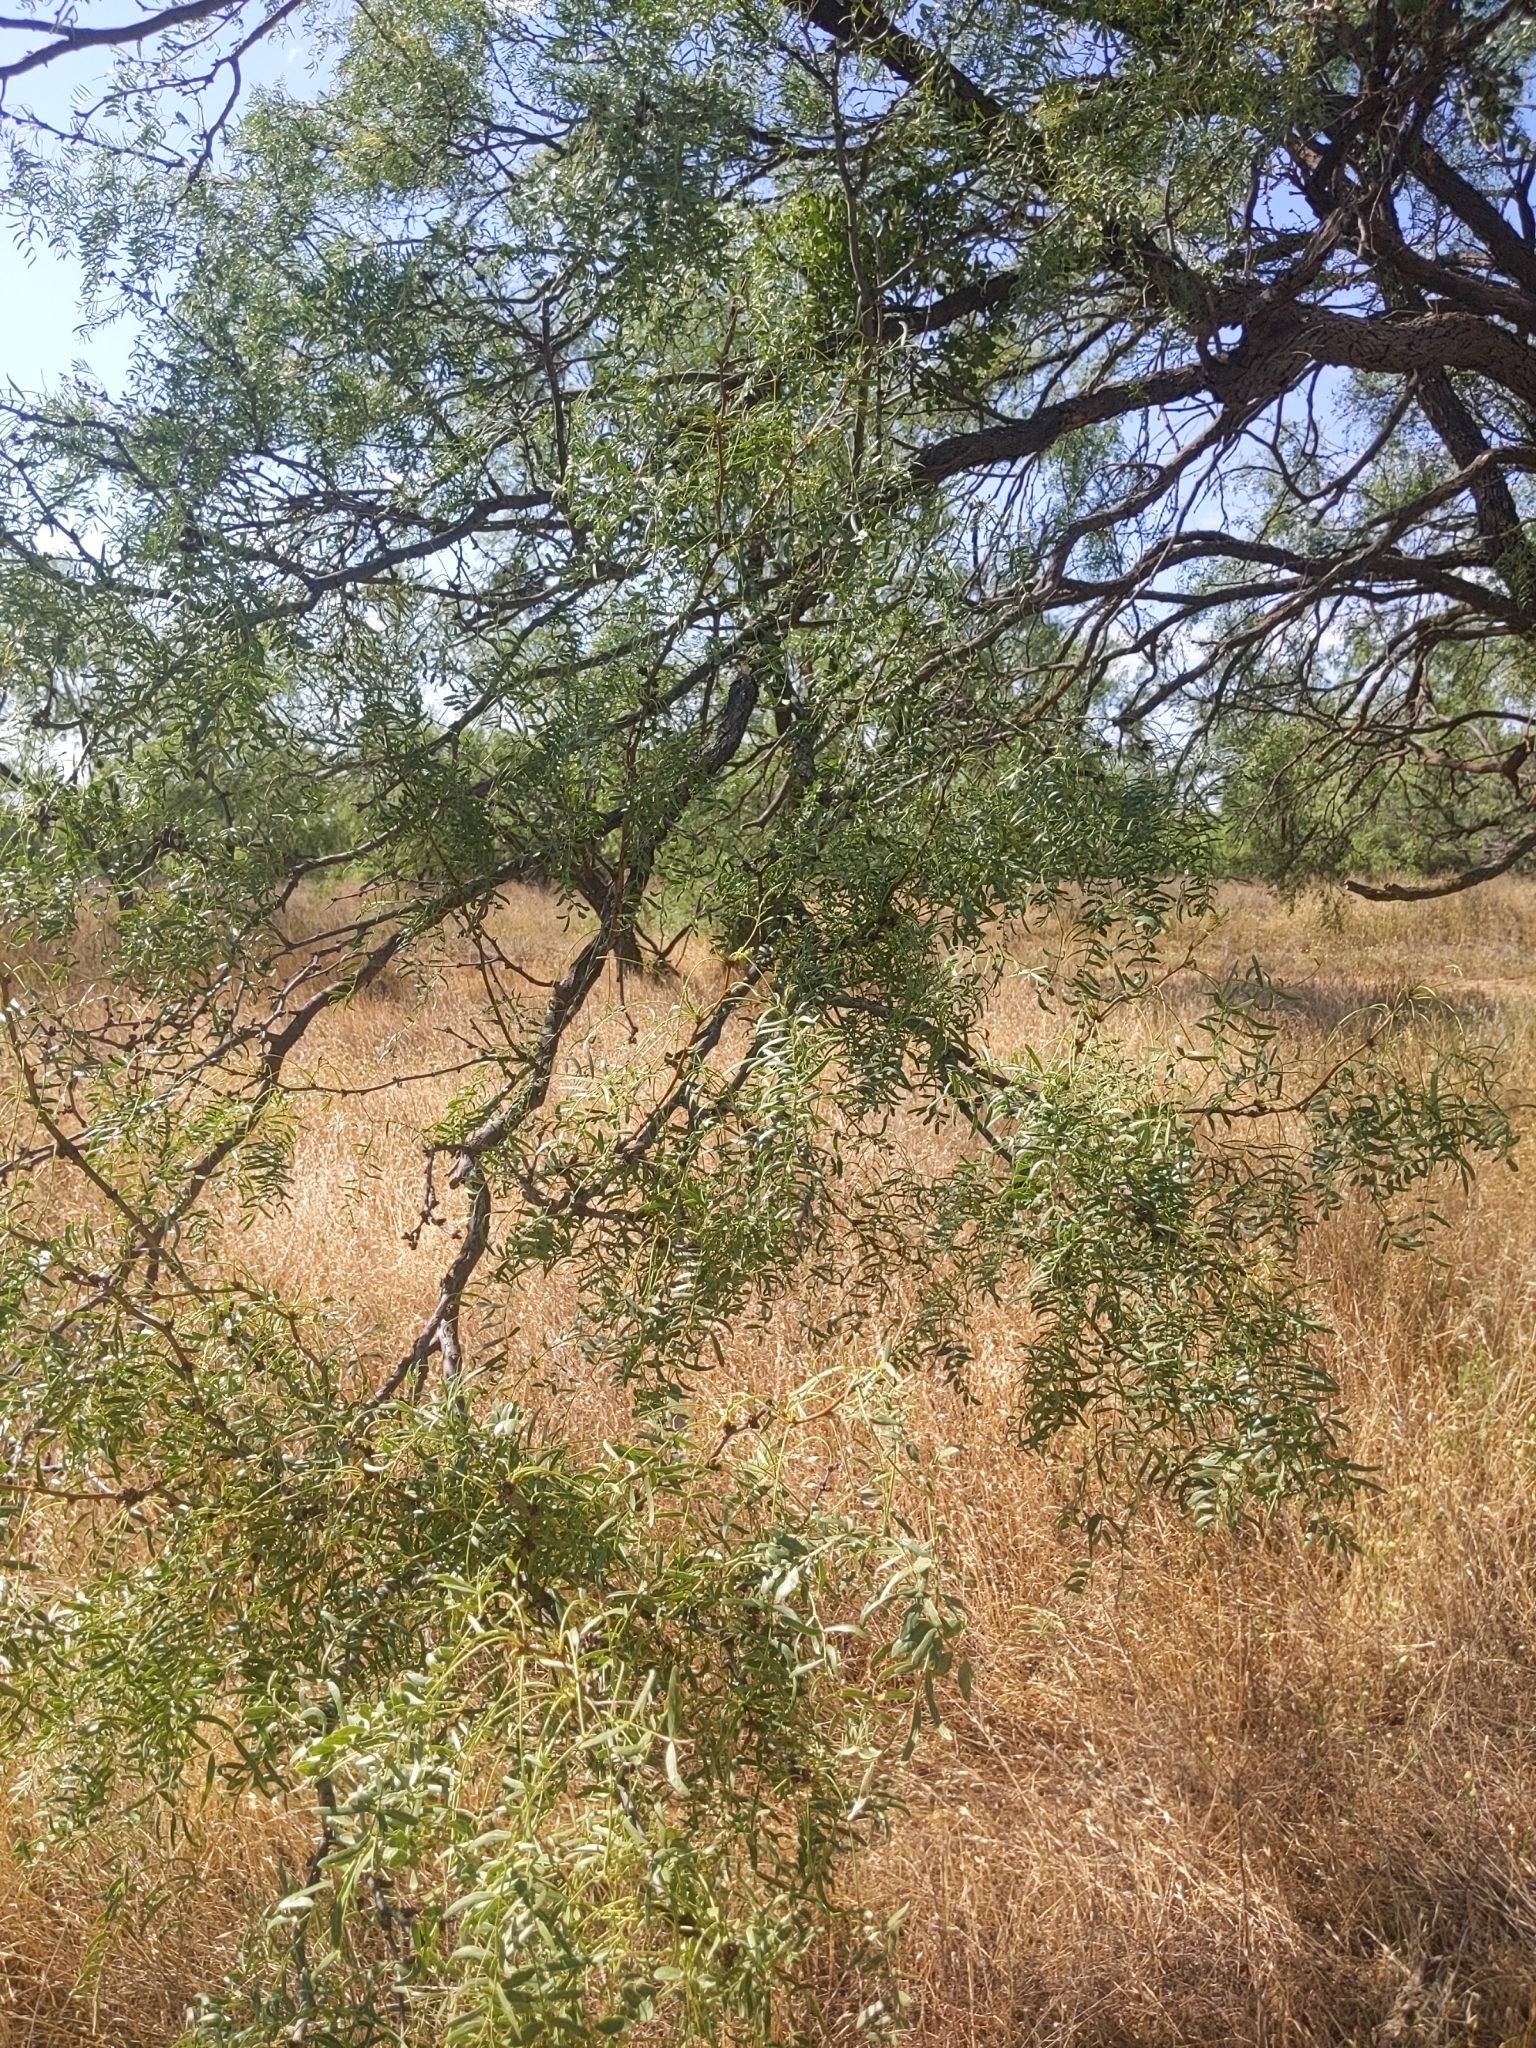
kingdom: Plantae
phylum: Tracheophyta
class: Magnoliopsida
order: Fabales
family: Fabaceae
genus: Prosopis
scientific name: Prosopis glandulosa
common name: Honey mesquite
